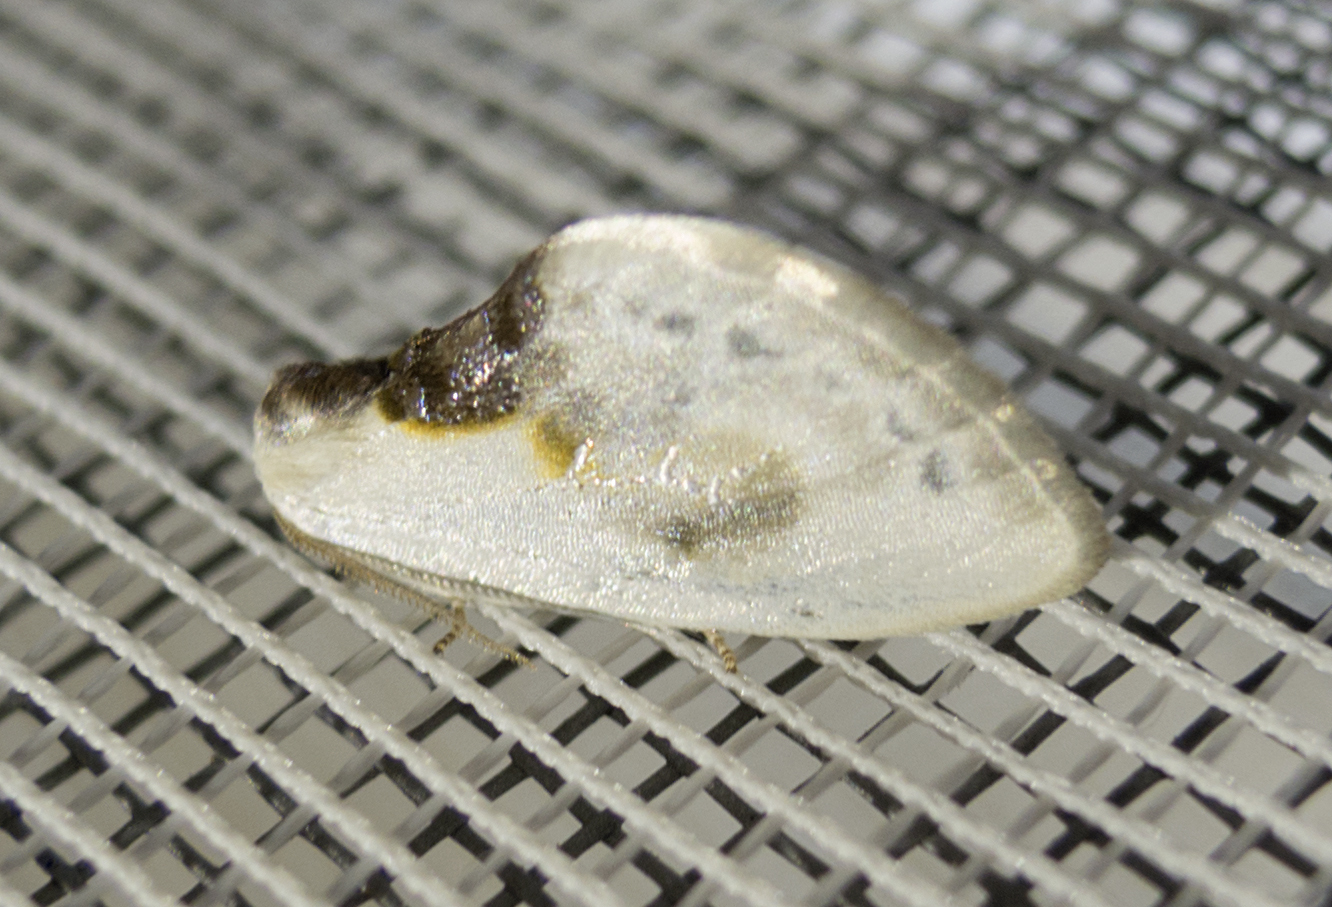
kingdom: Animalia
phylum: Arthropoda
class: Insecta
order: Lepidoptera
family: Drepanidae
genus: Cilix
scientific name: Cilix glaucata
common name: Chinese character
